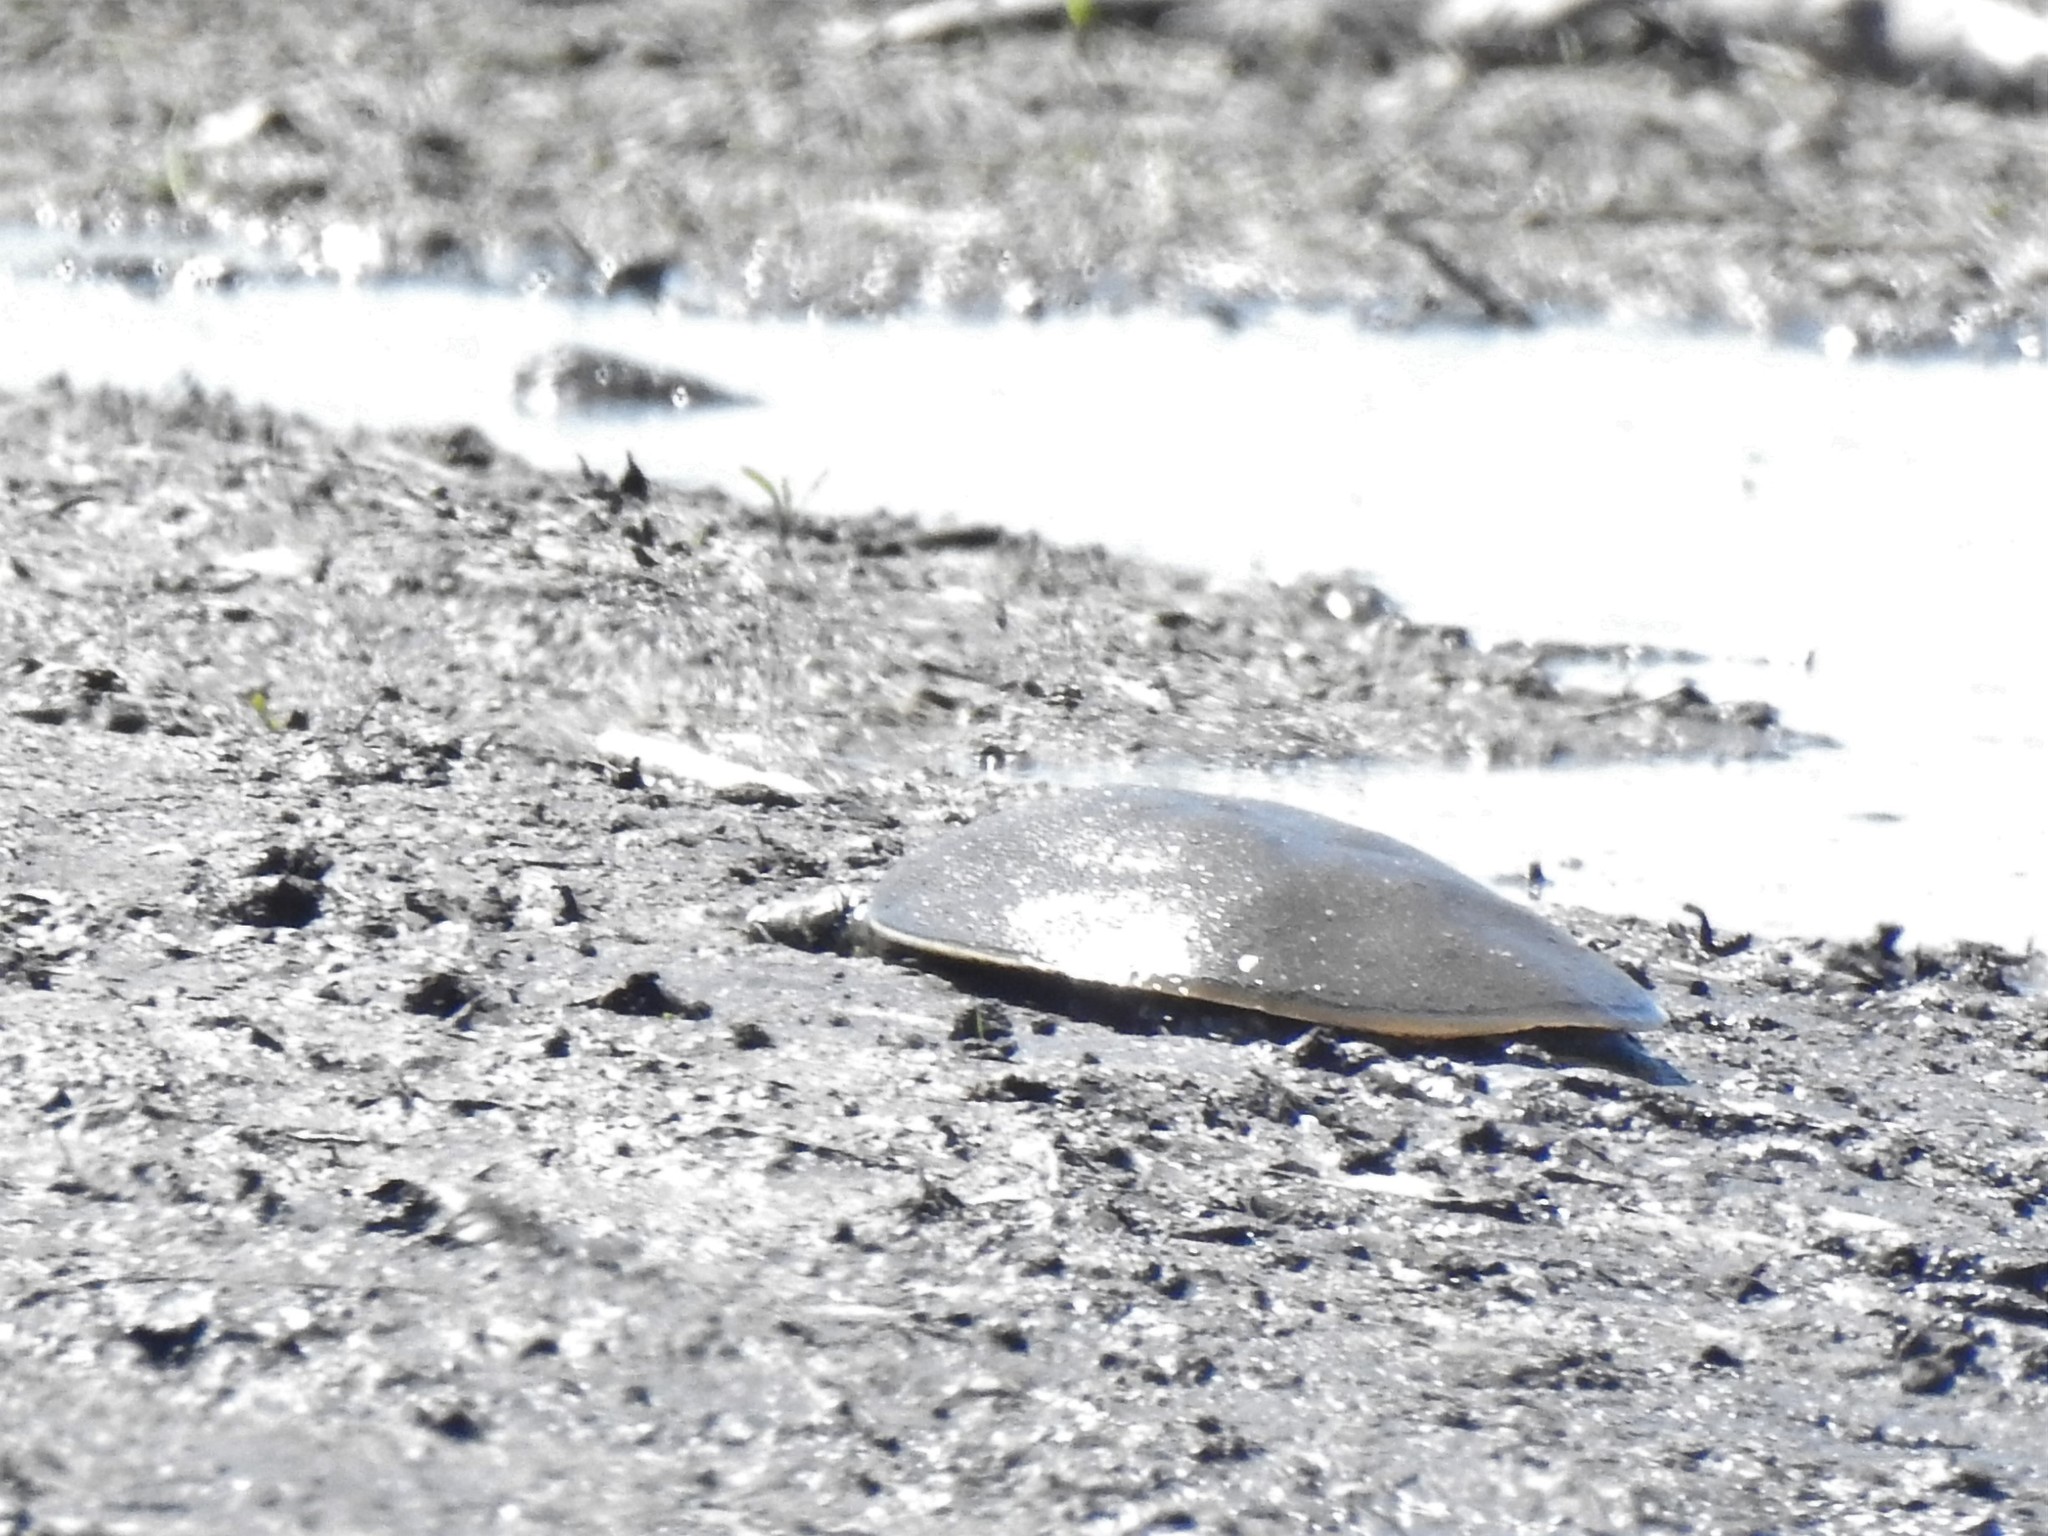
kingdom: Animalia
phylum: Chordata
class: Testudines
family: Trionychidae
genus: Apalone
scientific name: Apalone spinifera
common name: Spiny softshell turtle
